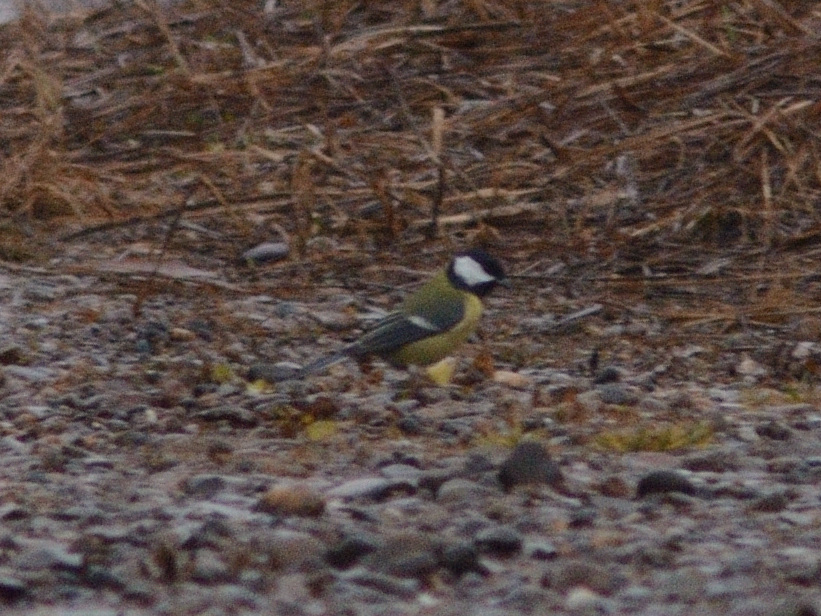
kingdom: Animalia
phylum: Chordata
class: Aves
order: Passeriformes
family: Paridae
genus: Parus
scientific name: Parus major
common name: Great tit
